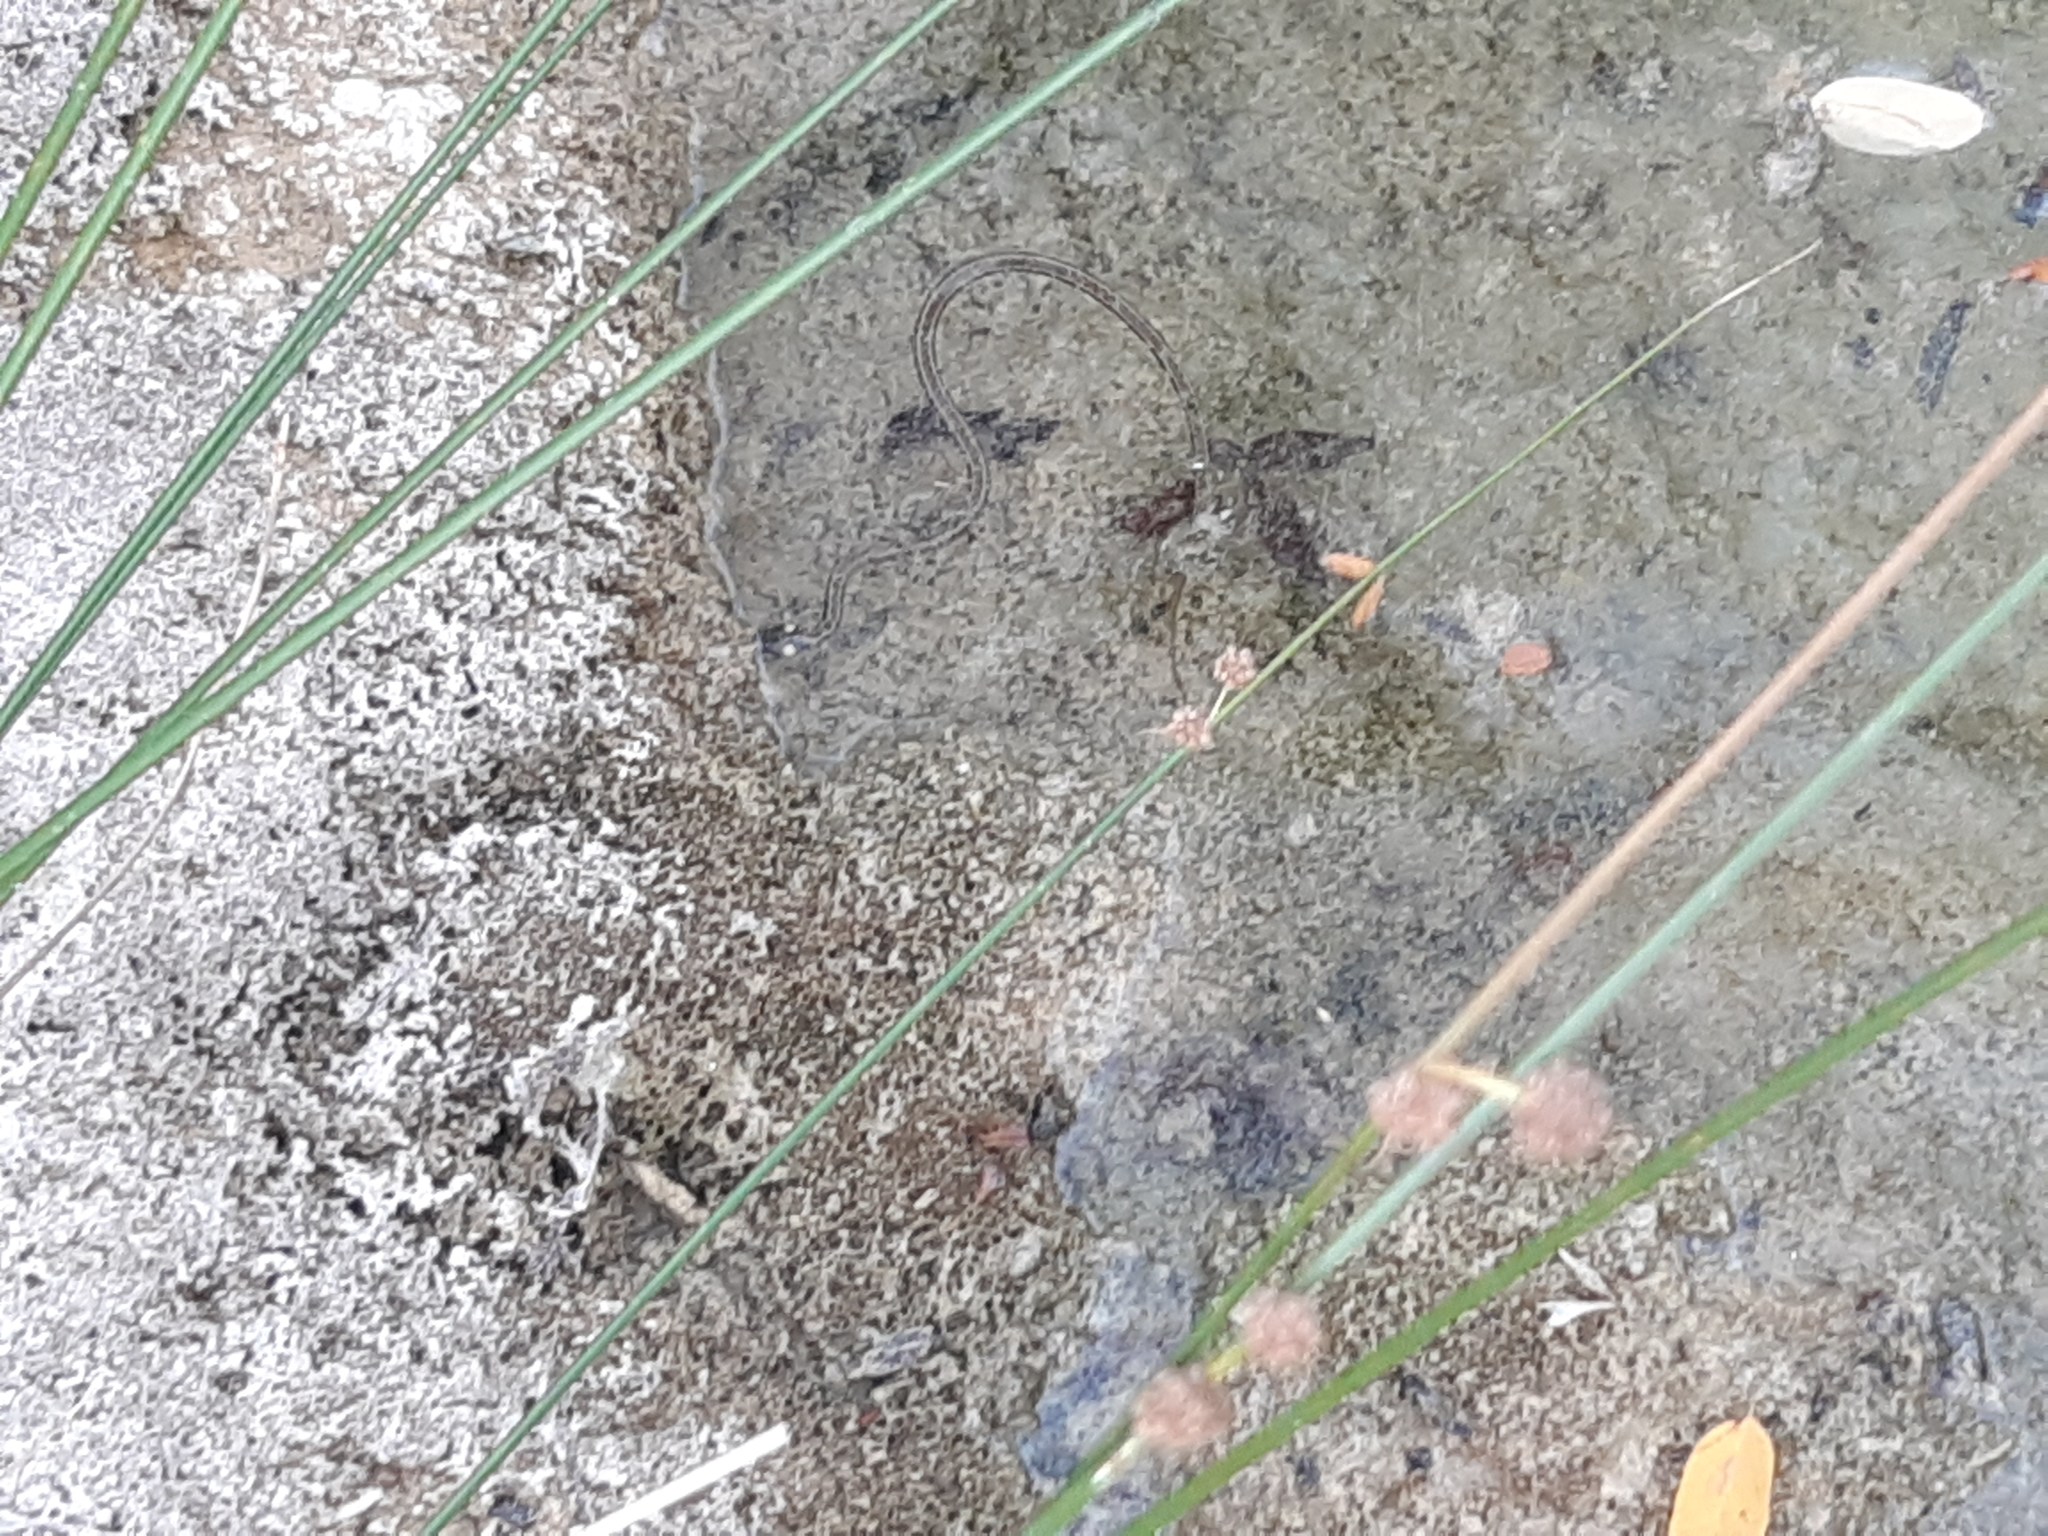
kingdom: Animalia
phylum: Chordata
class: Squamata
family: Colubridae
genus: Natrix
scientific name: Natrix natrix
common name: Grass snake
